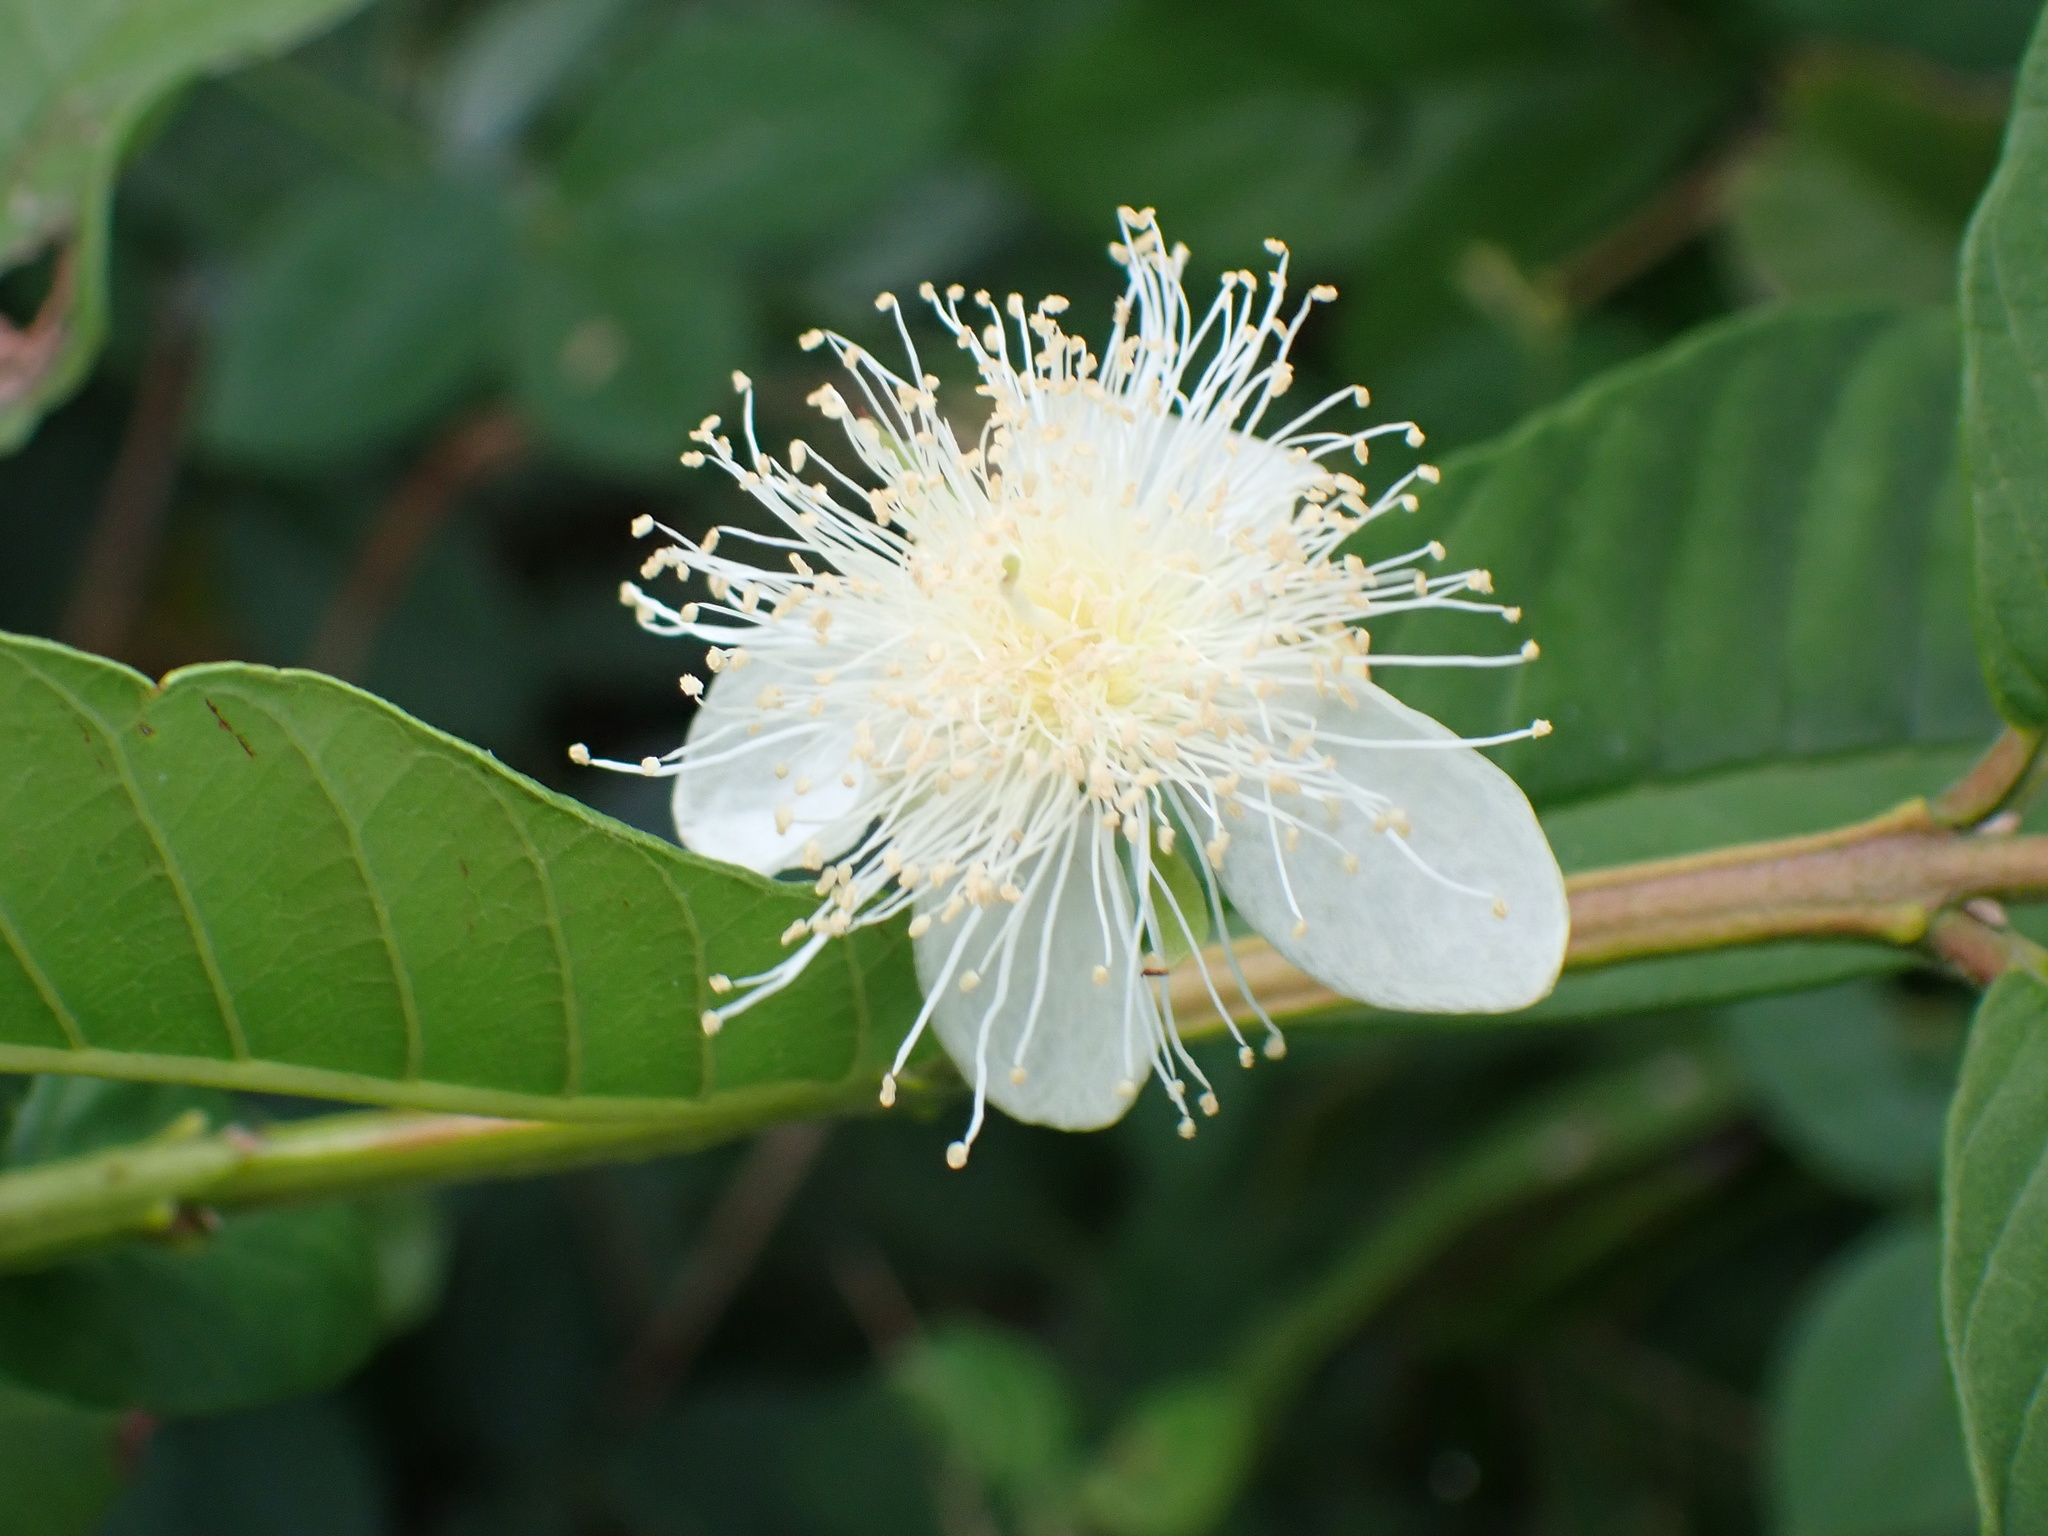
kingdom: Plantae
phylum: Tracheophyta
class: Magnoliopsida
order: Myrtales
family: Myrtaceae
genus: Psidium
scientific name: Psidium guajava
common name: Guava
